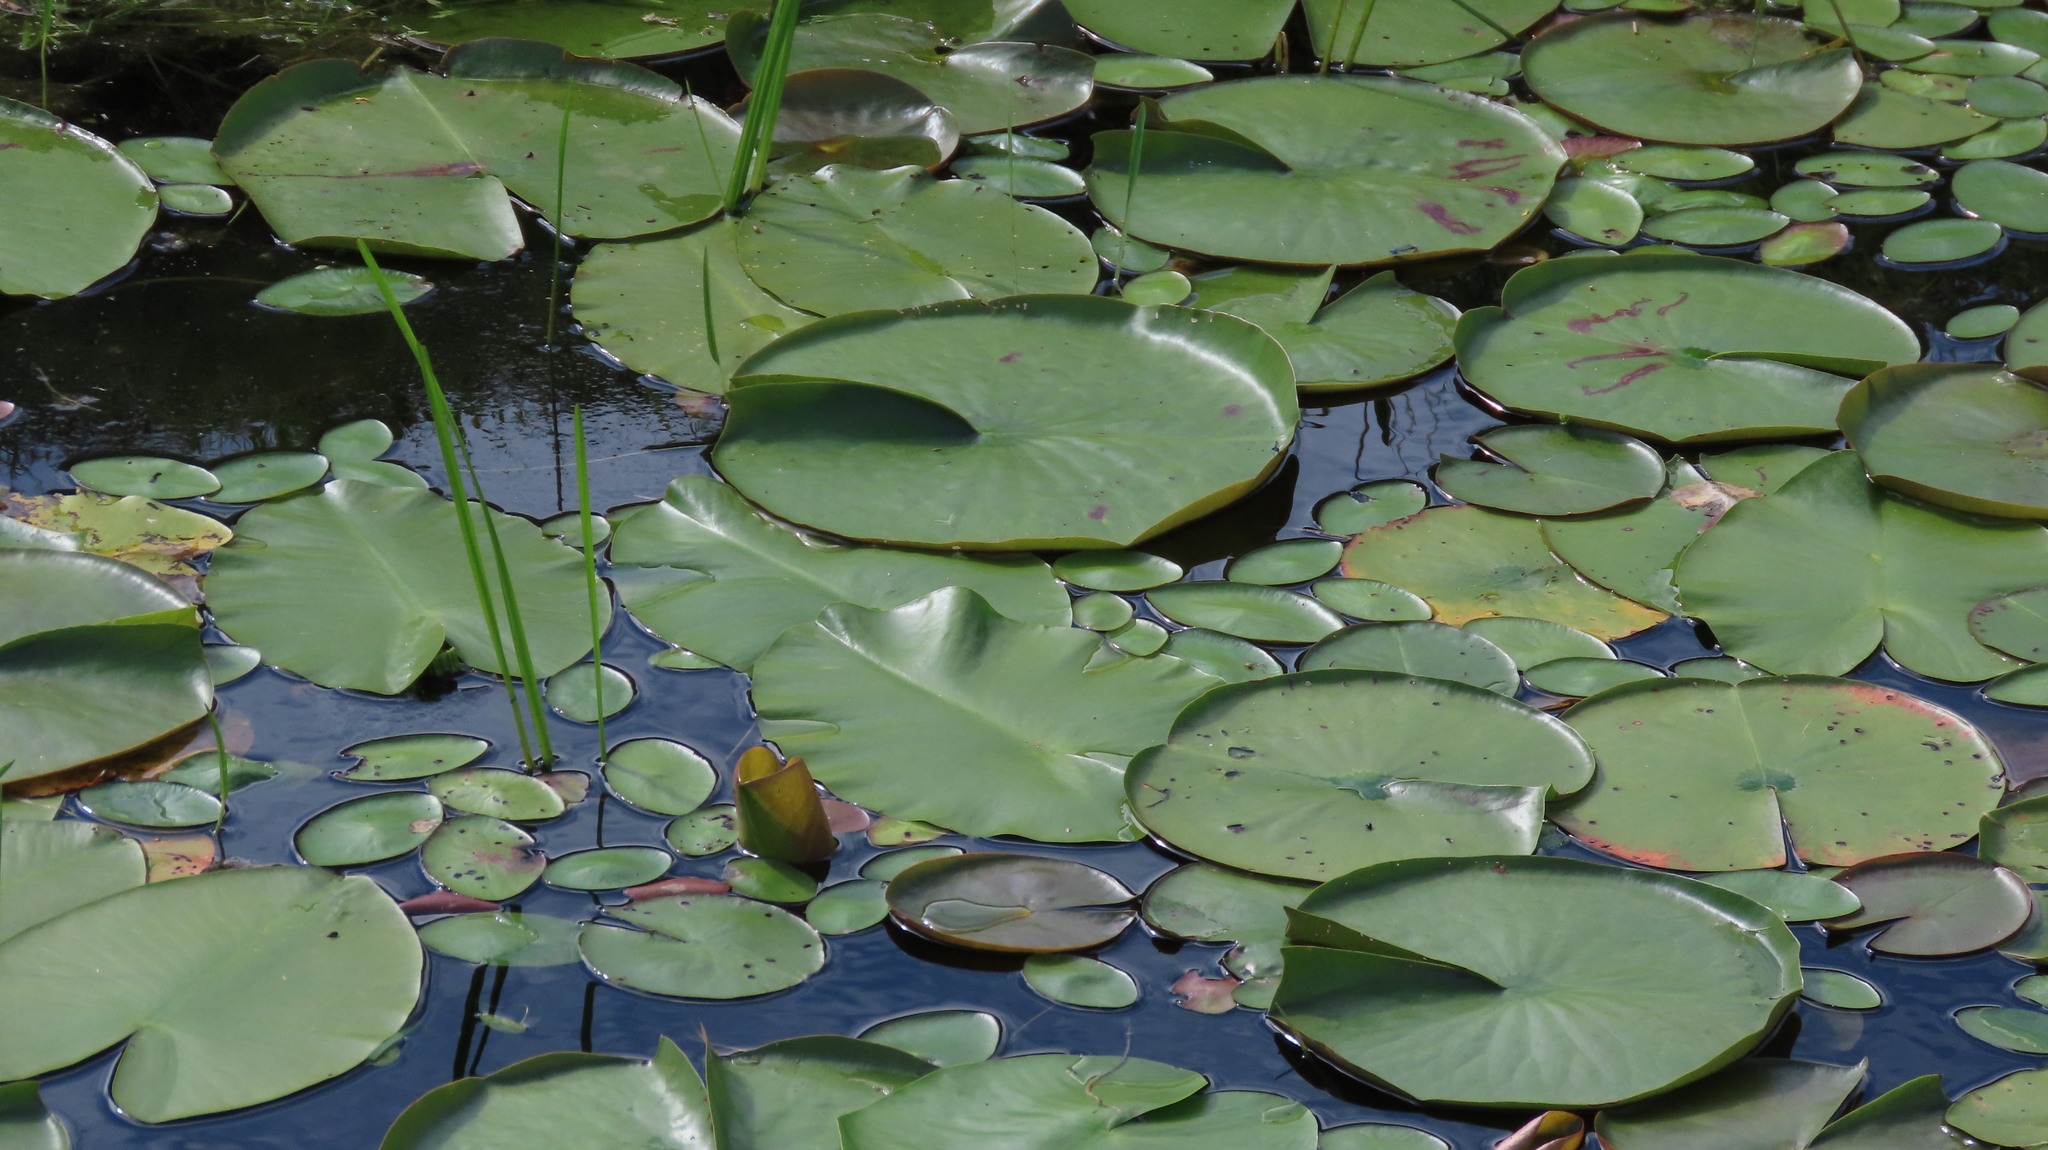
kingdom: Plantae
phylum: Tracheophyta
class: Magnoliopsida
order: Nymphaeales
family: Cabombaceae
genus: Brasenia
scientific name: Brasenia schreberi
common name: Water-shield
